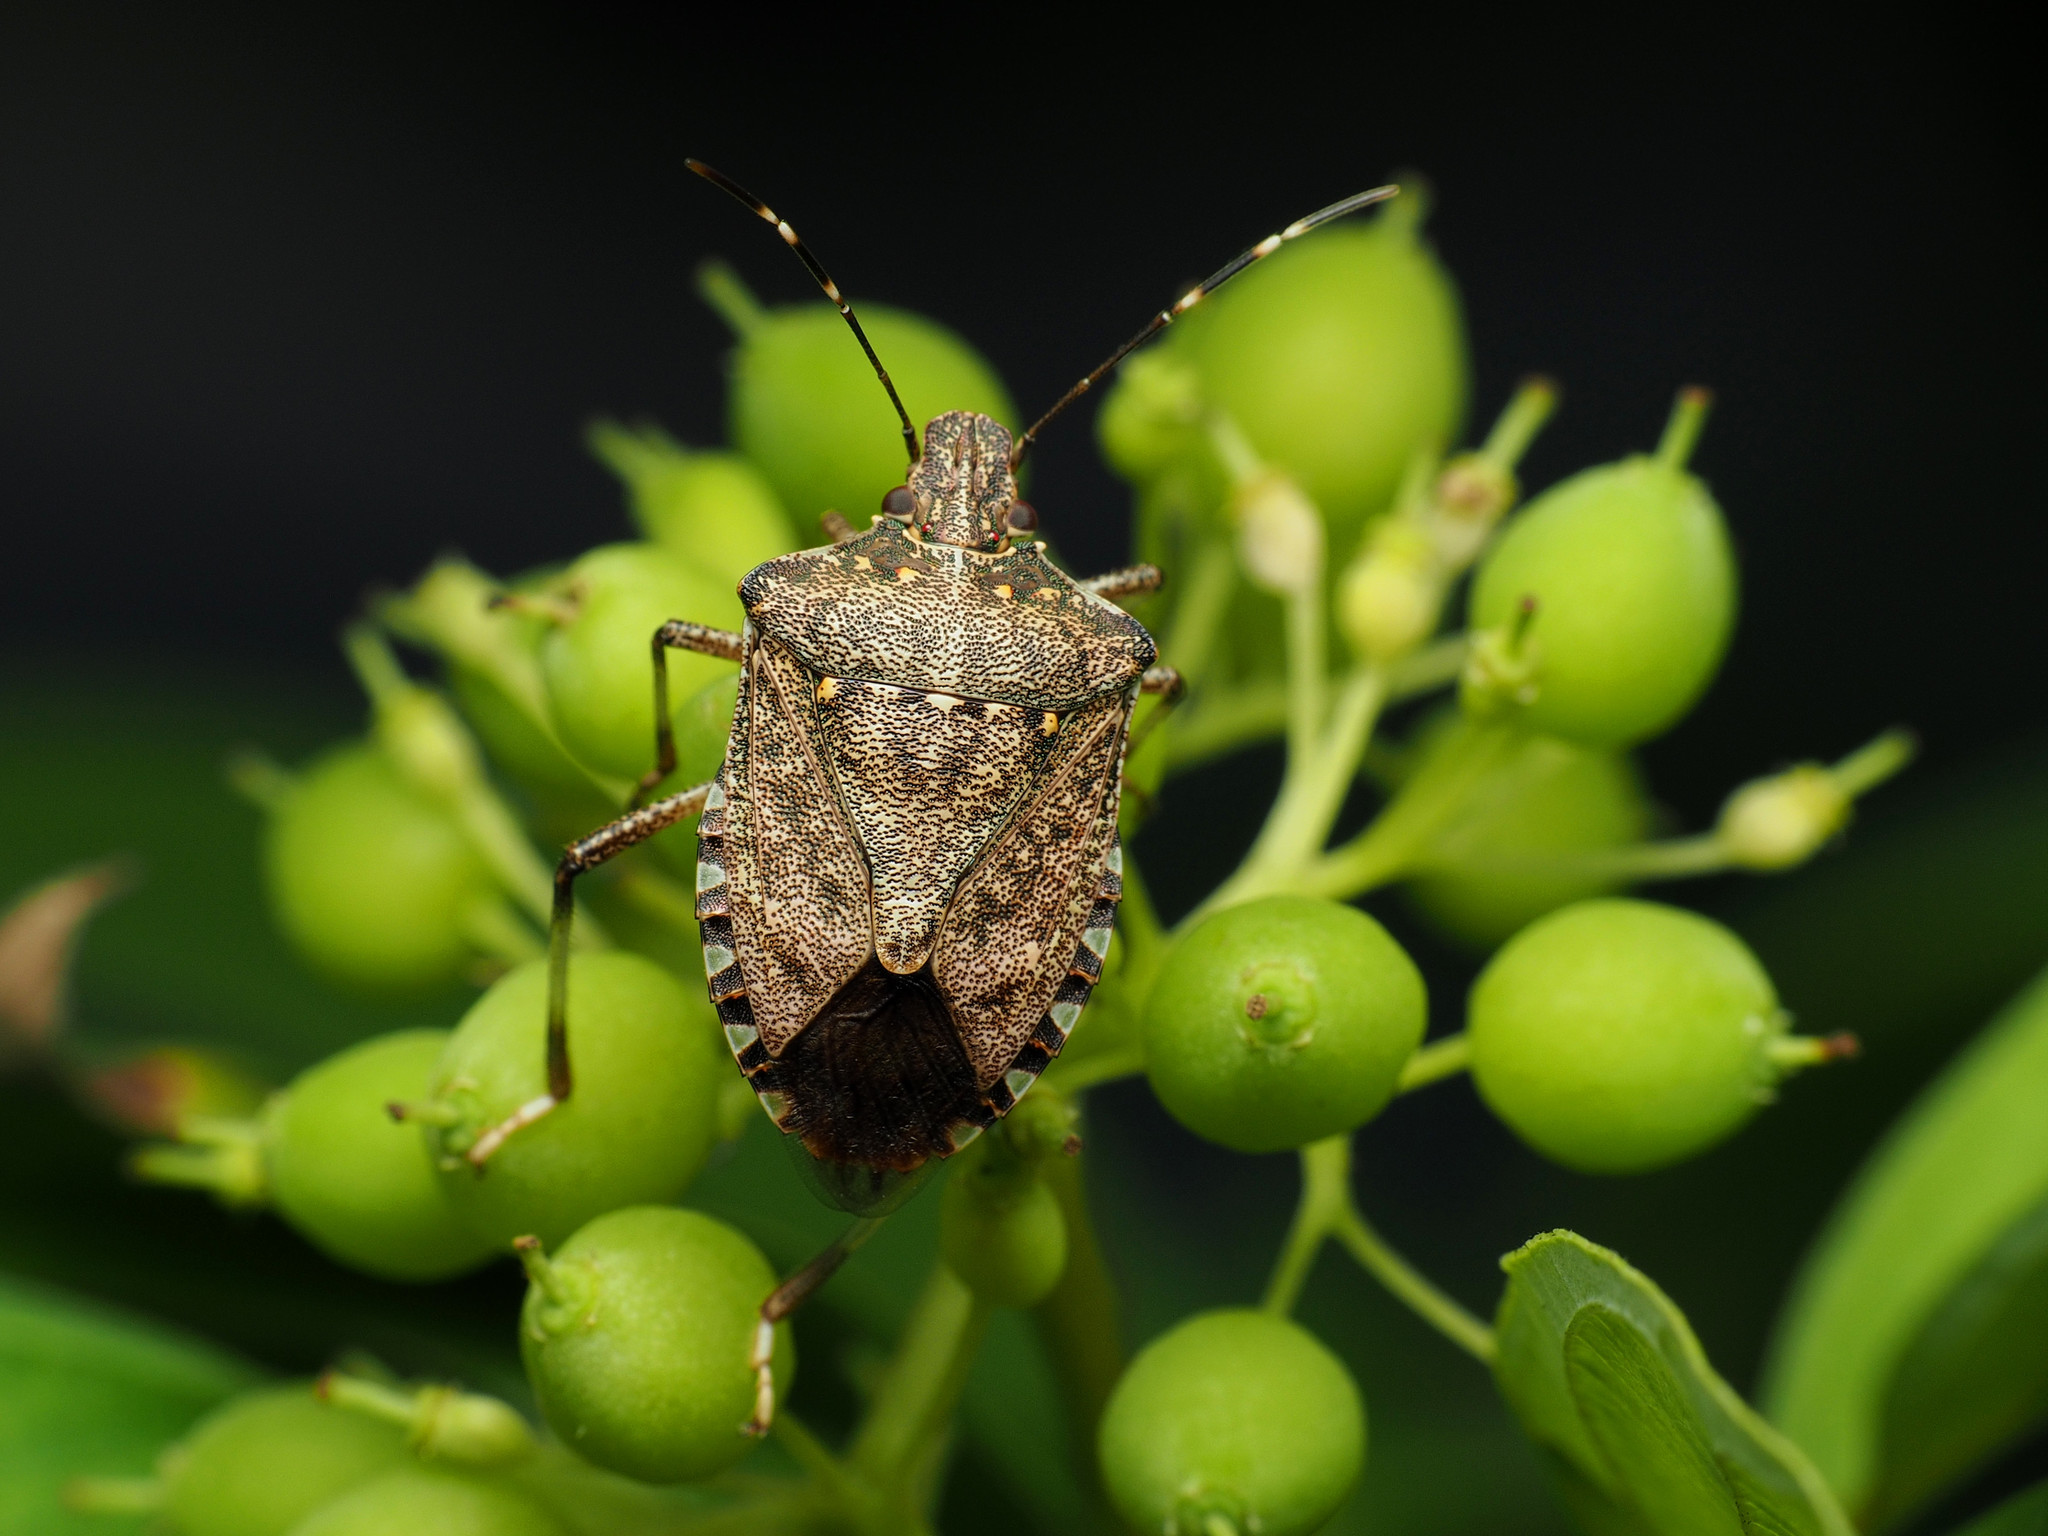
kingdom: Animalia
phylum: Arthropoda
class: Insecta
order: Hemiptera
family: Pentatomidae
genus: Halyomorpha
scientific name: Halyomorpha halys
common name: Brown marmorated stink bug
